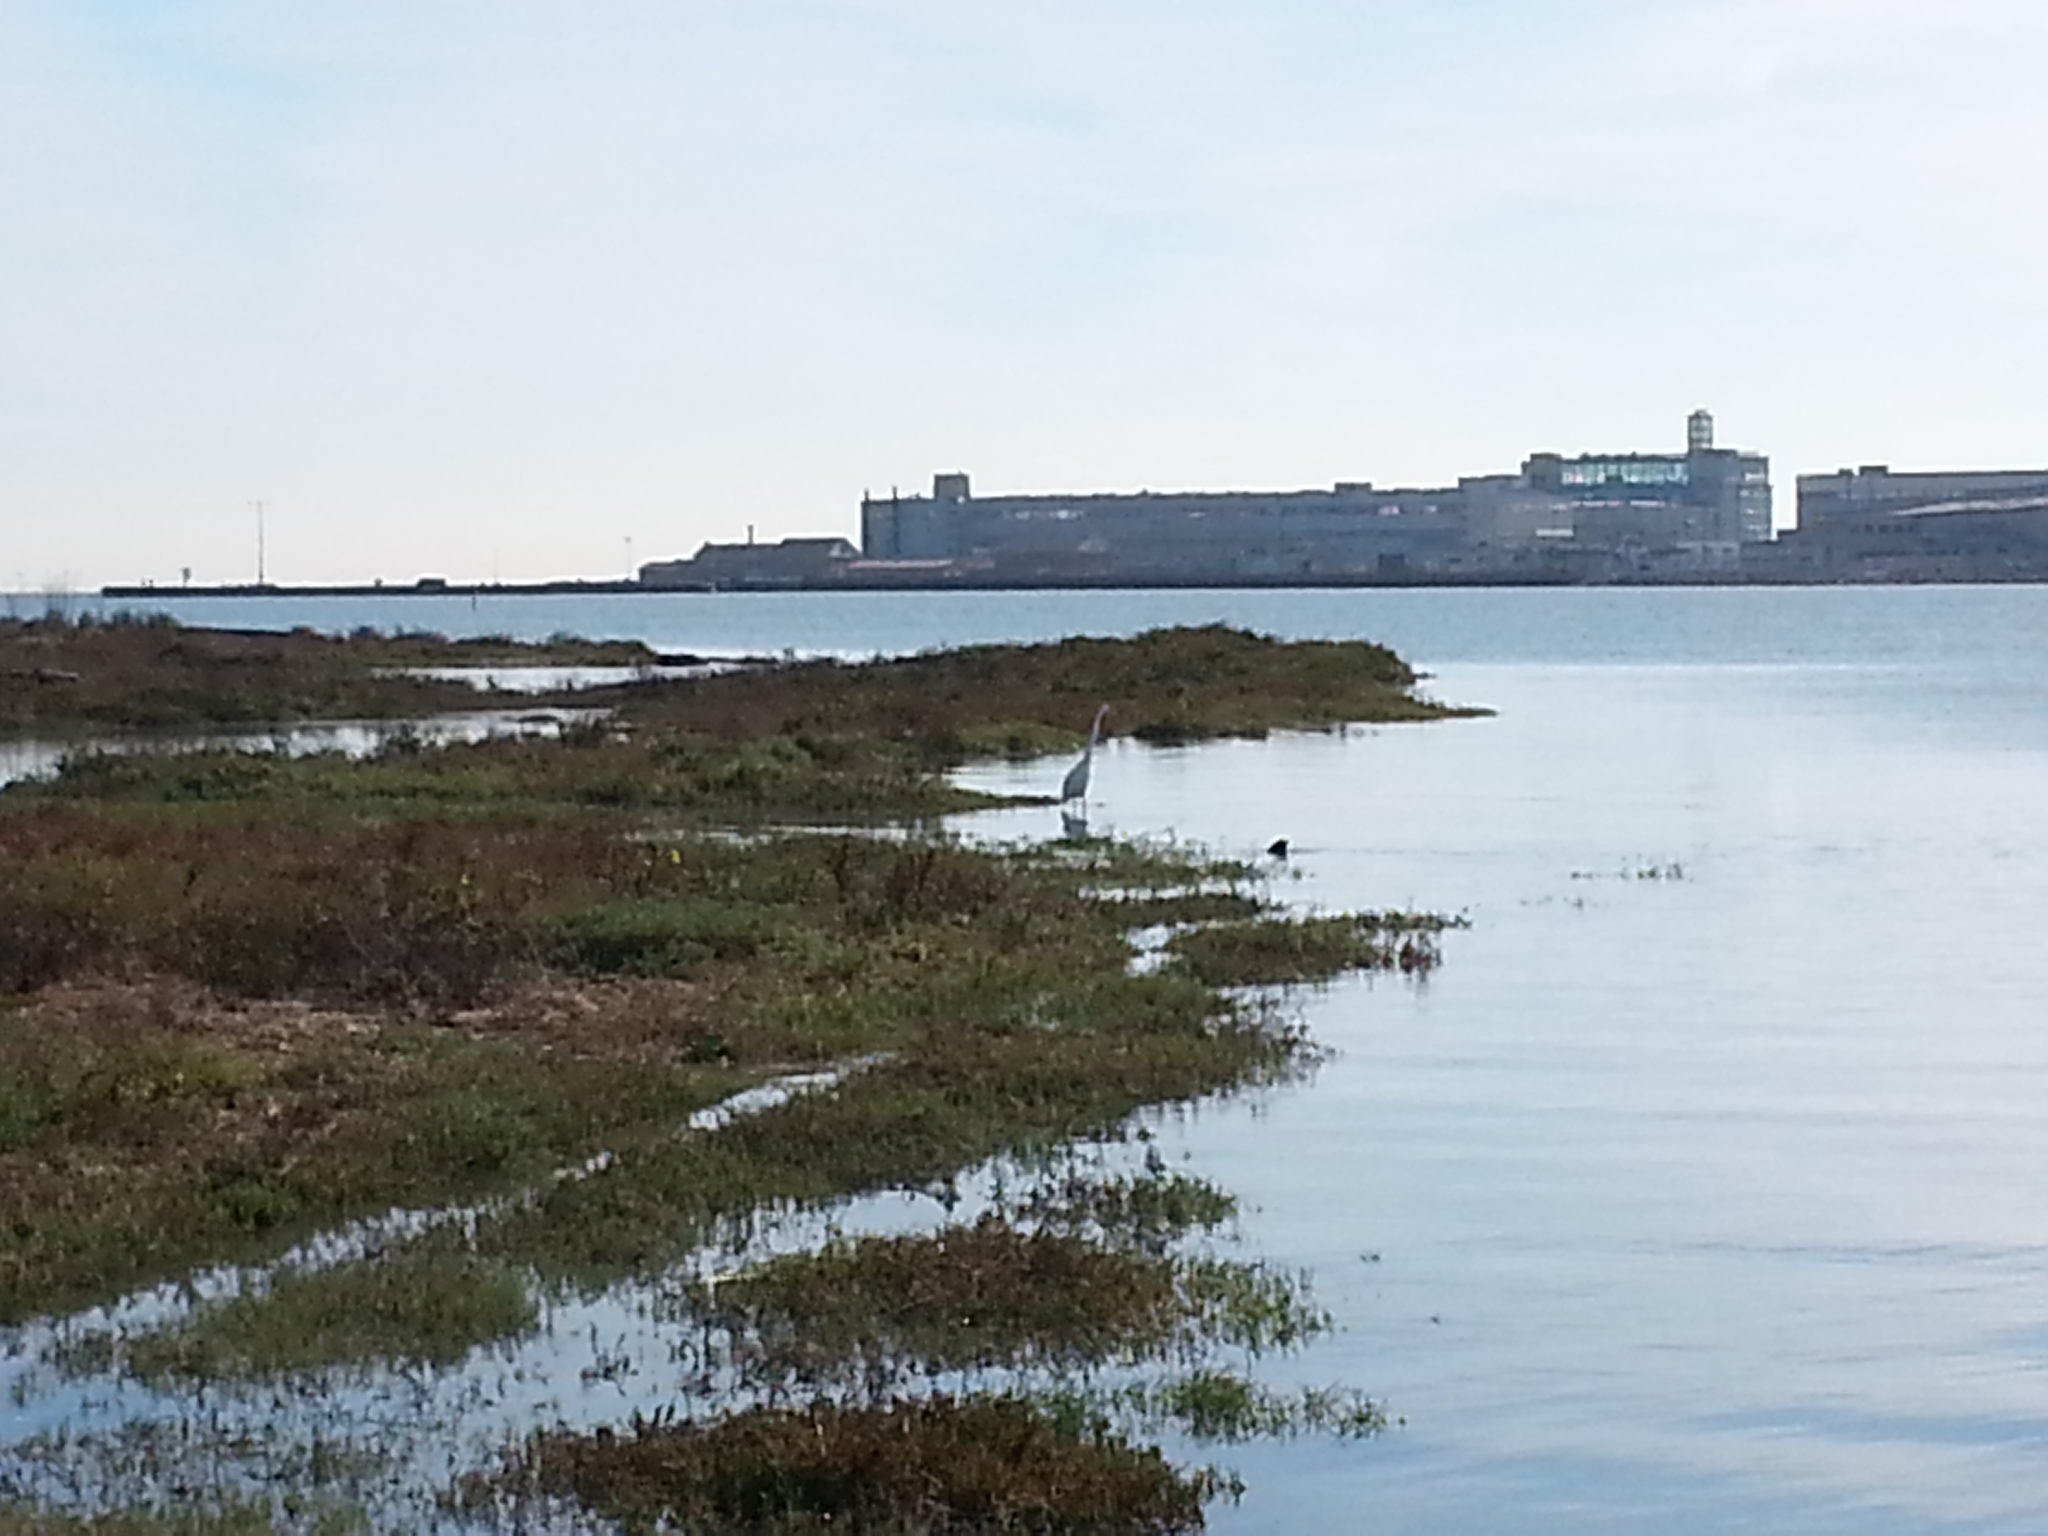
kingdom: Animalia
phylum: Chordata
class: Aves
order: Pelecaniformes
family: Ardeidae
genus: Ardea
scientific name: Ardea herodias
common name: Great blue heron
